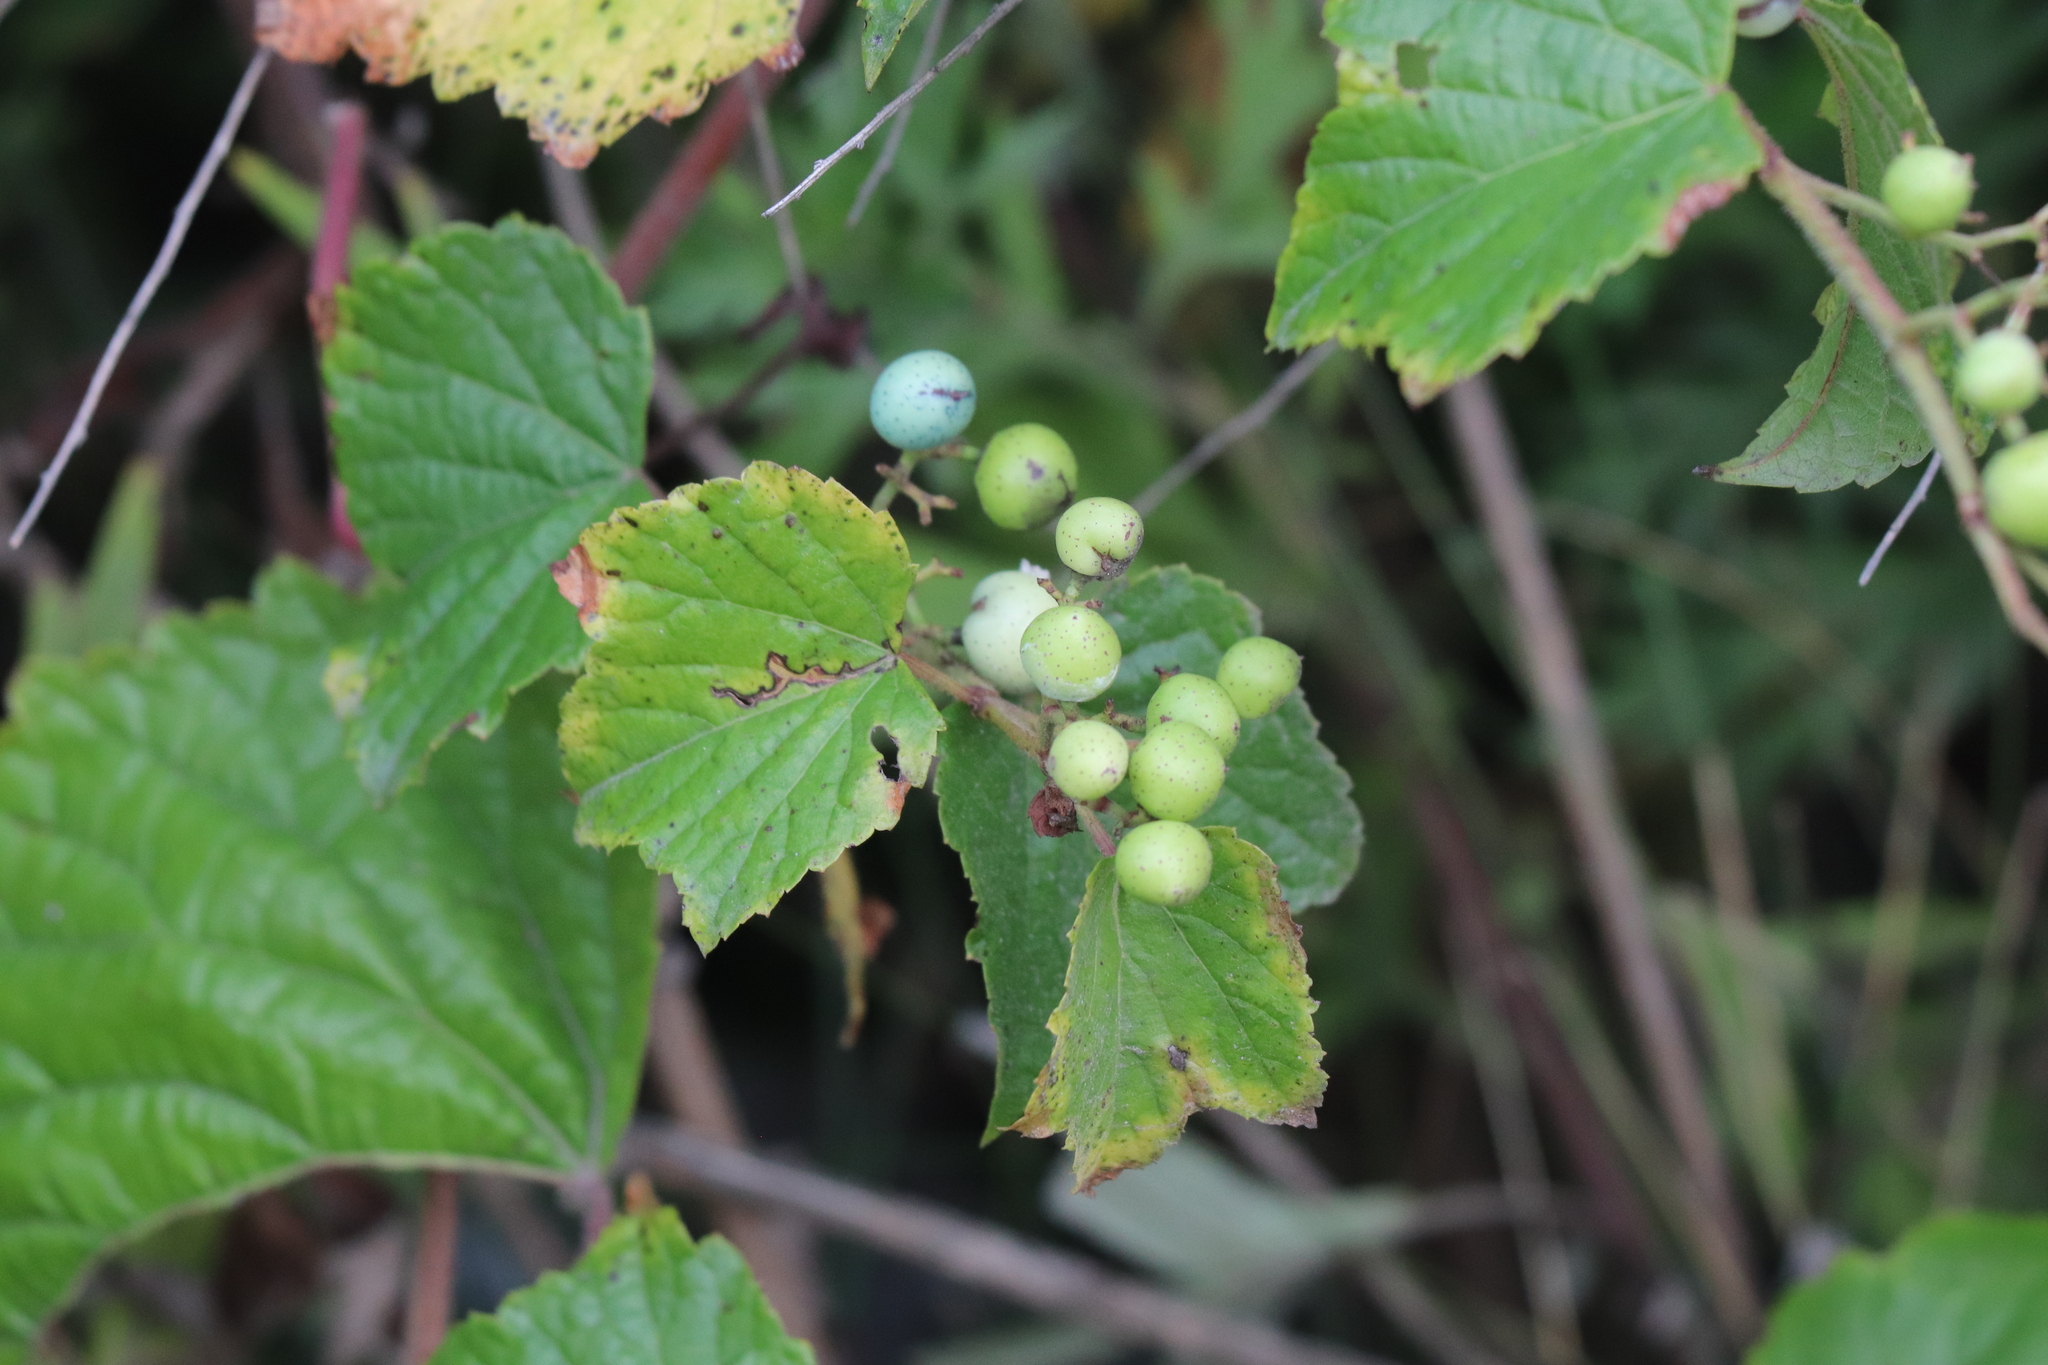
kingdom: Plantae
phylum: Tracheophyta
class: Magnoliopsida
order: Vitales
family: Vitaceae
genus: Ampelopsis
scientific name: Ampelopsis glandulosa
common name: Amur peppervine
